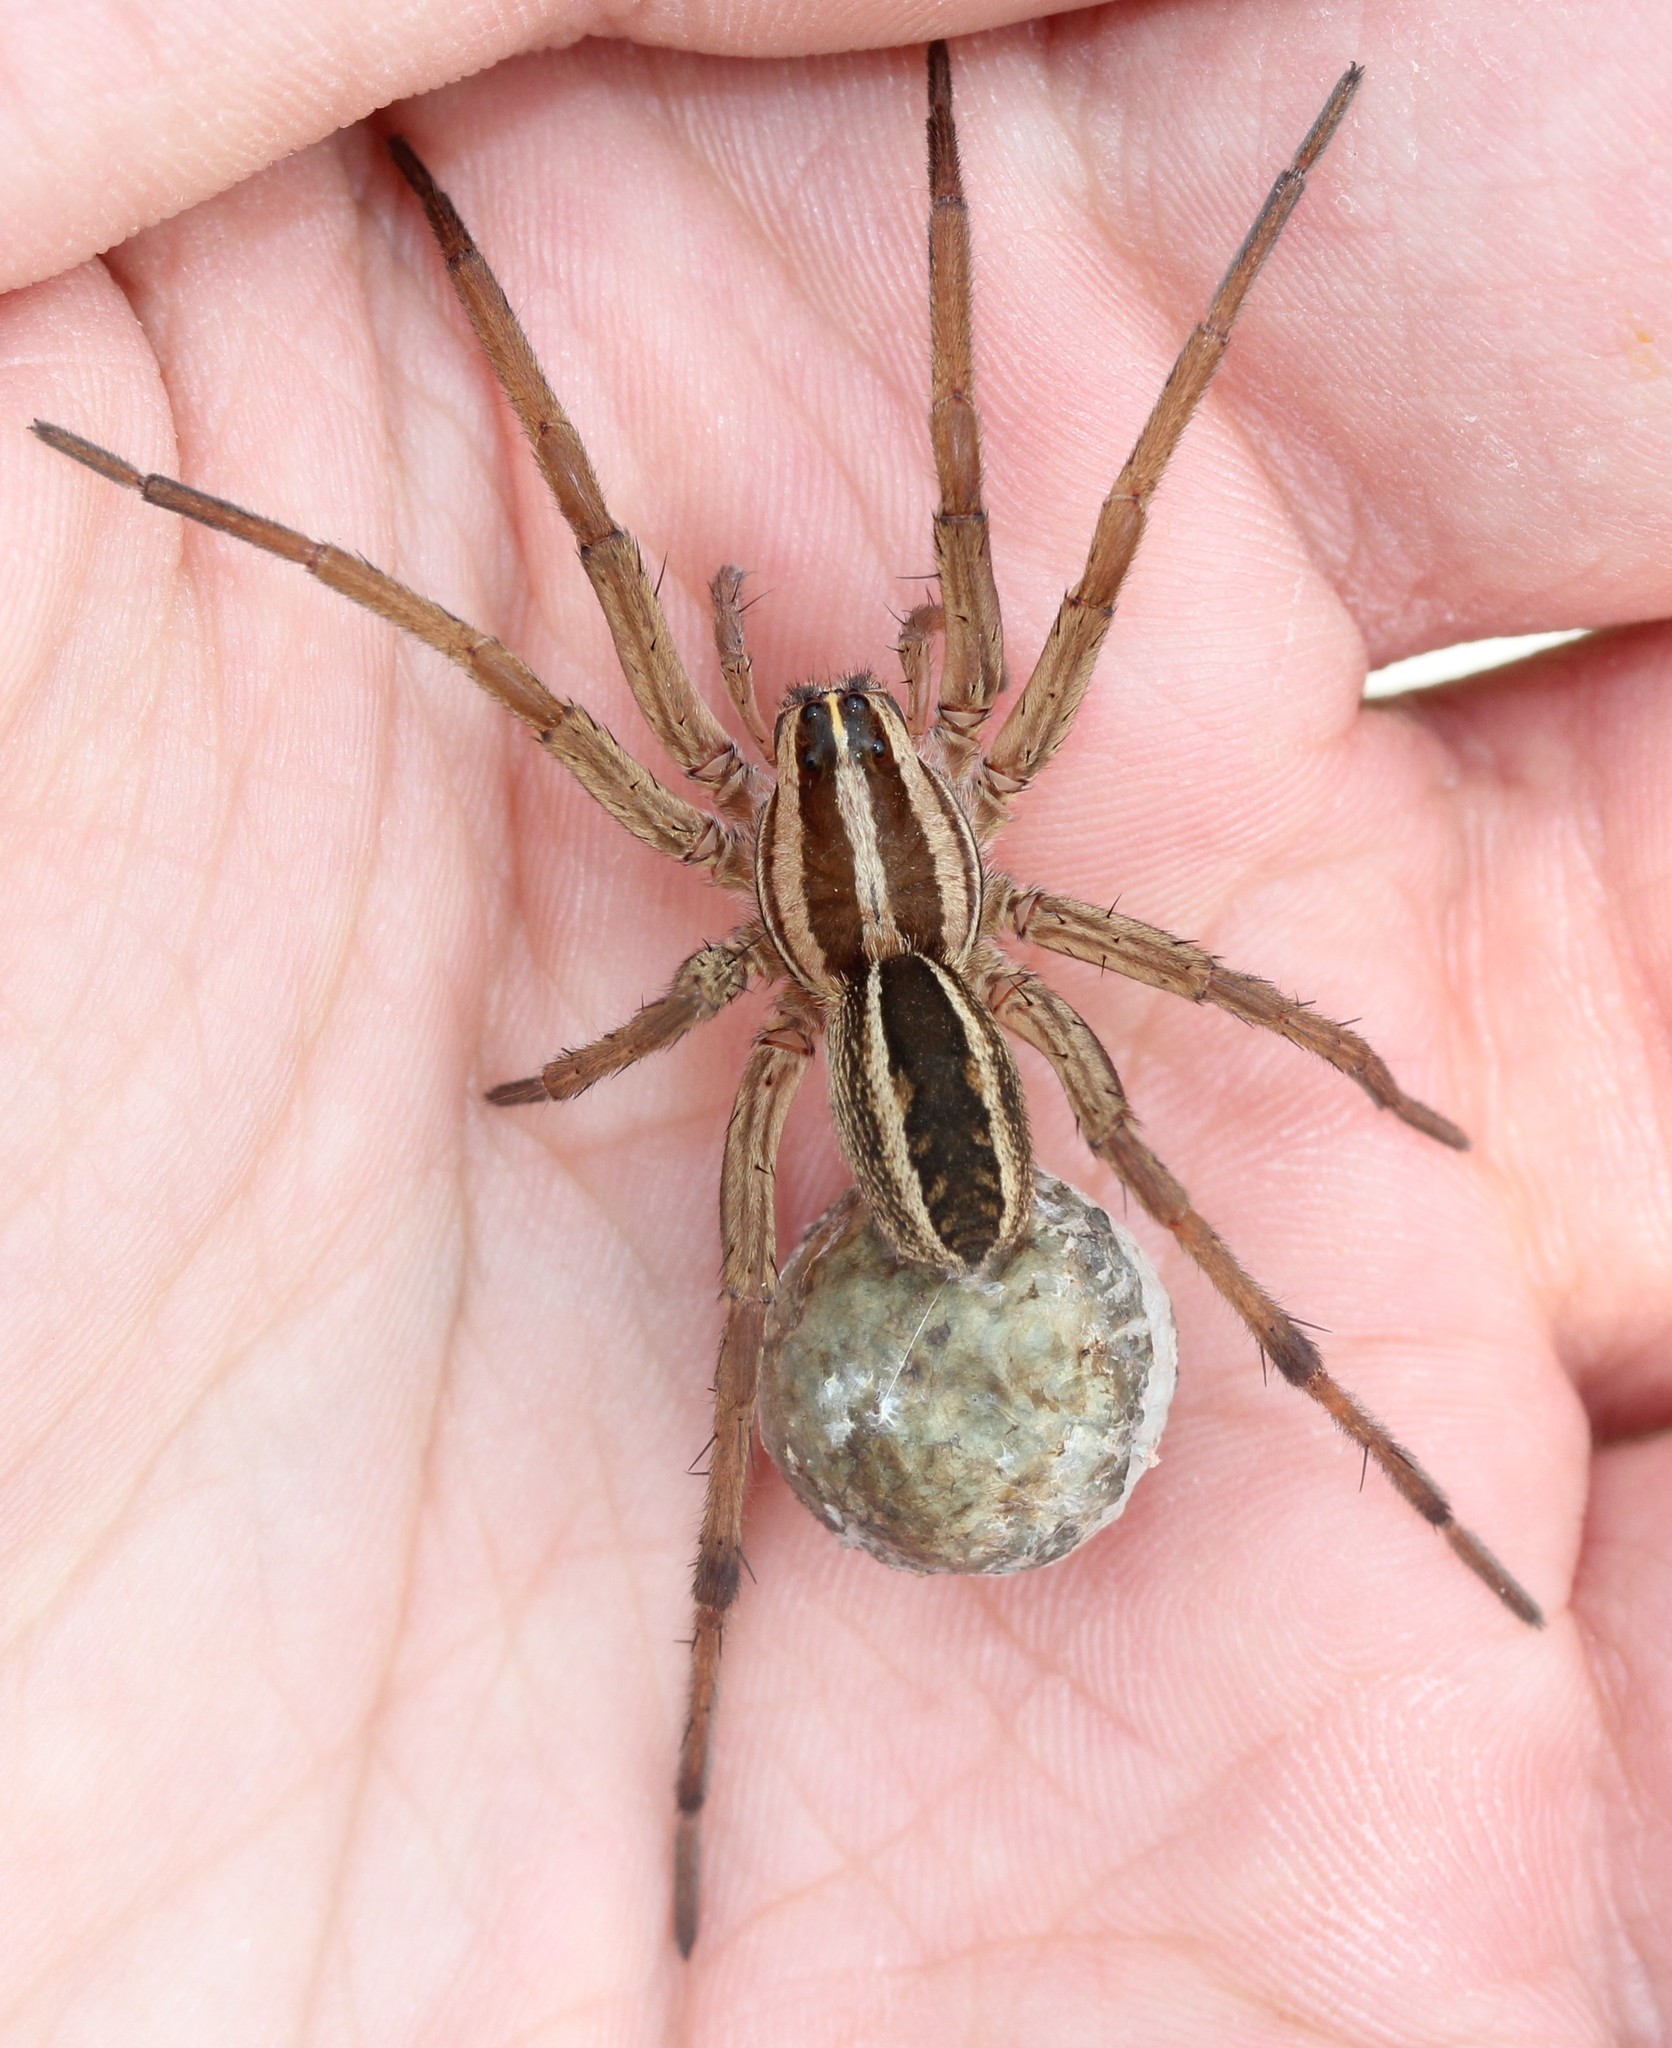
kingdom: Animalia
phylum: Arthropoda
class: Arachnida
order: Araneae
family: Lycosidae
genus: Rabidosa
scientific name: Rabidosa rabida
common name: Rabid wolf spider
